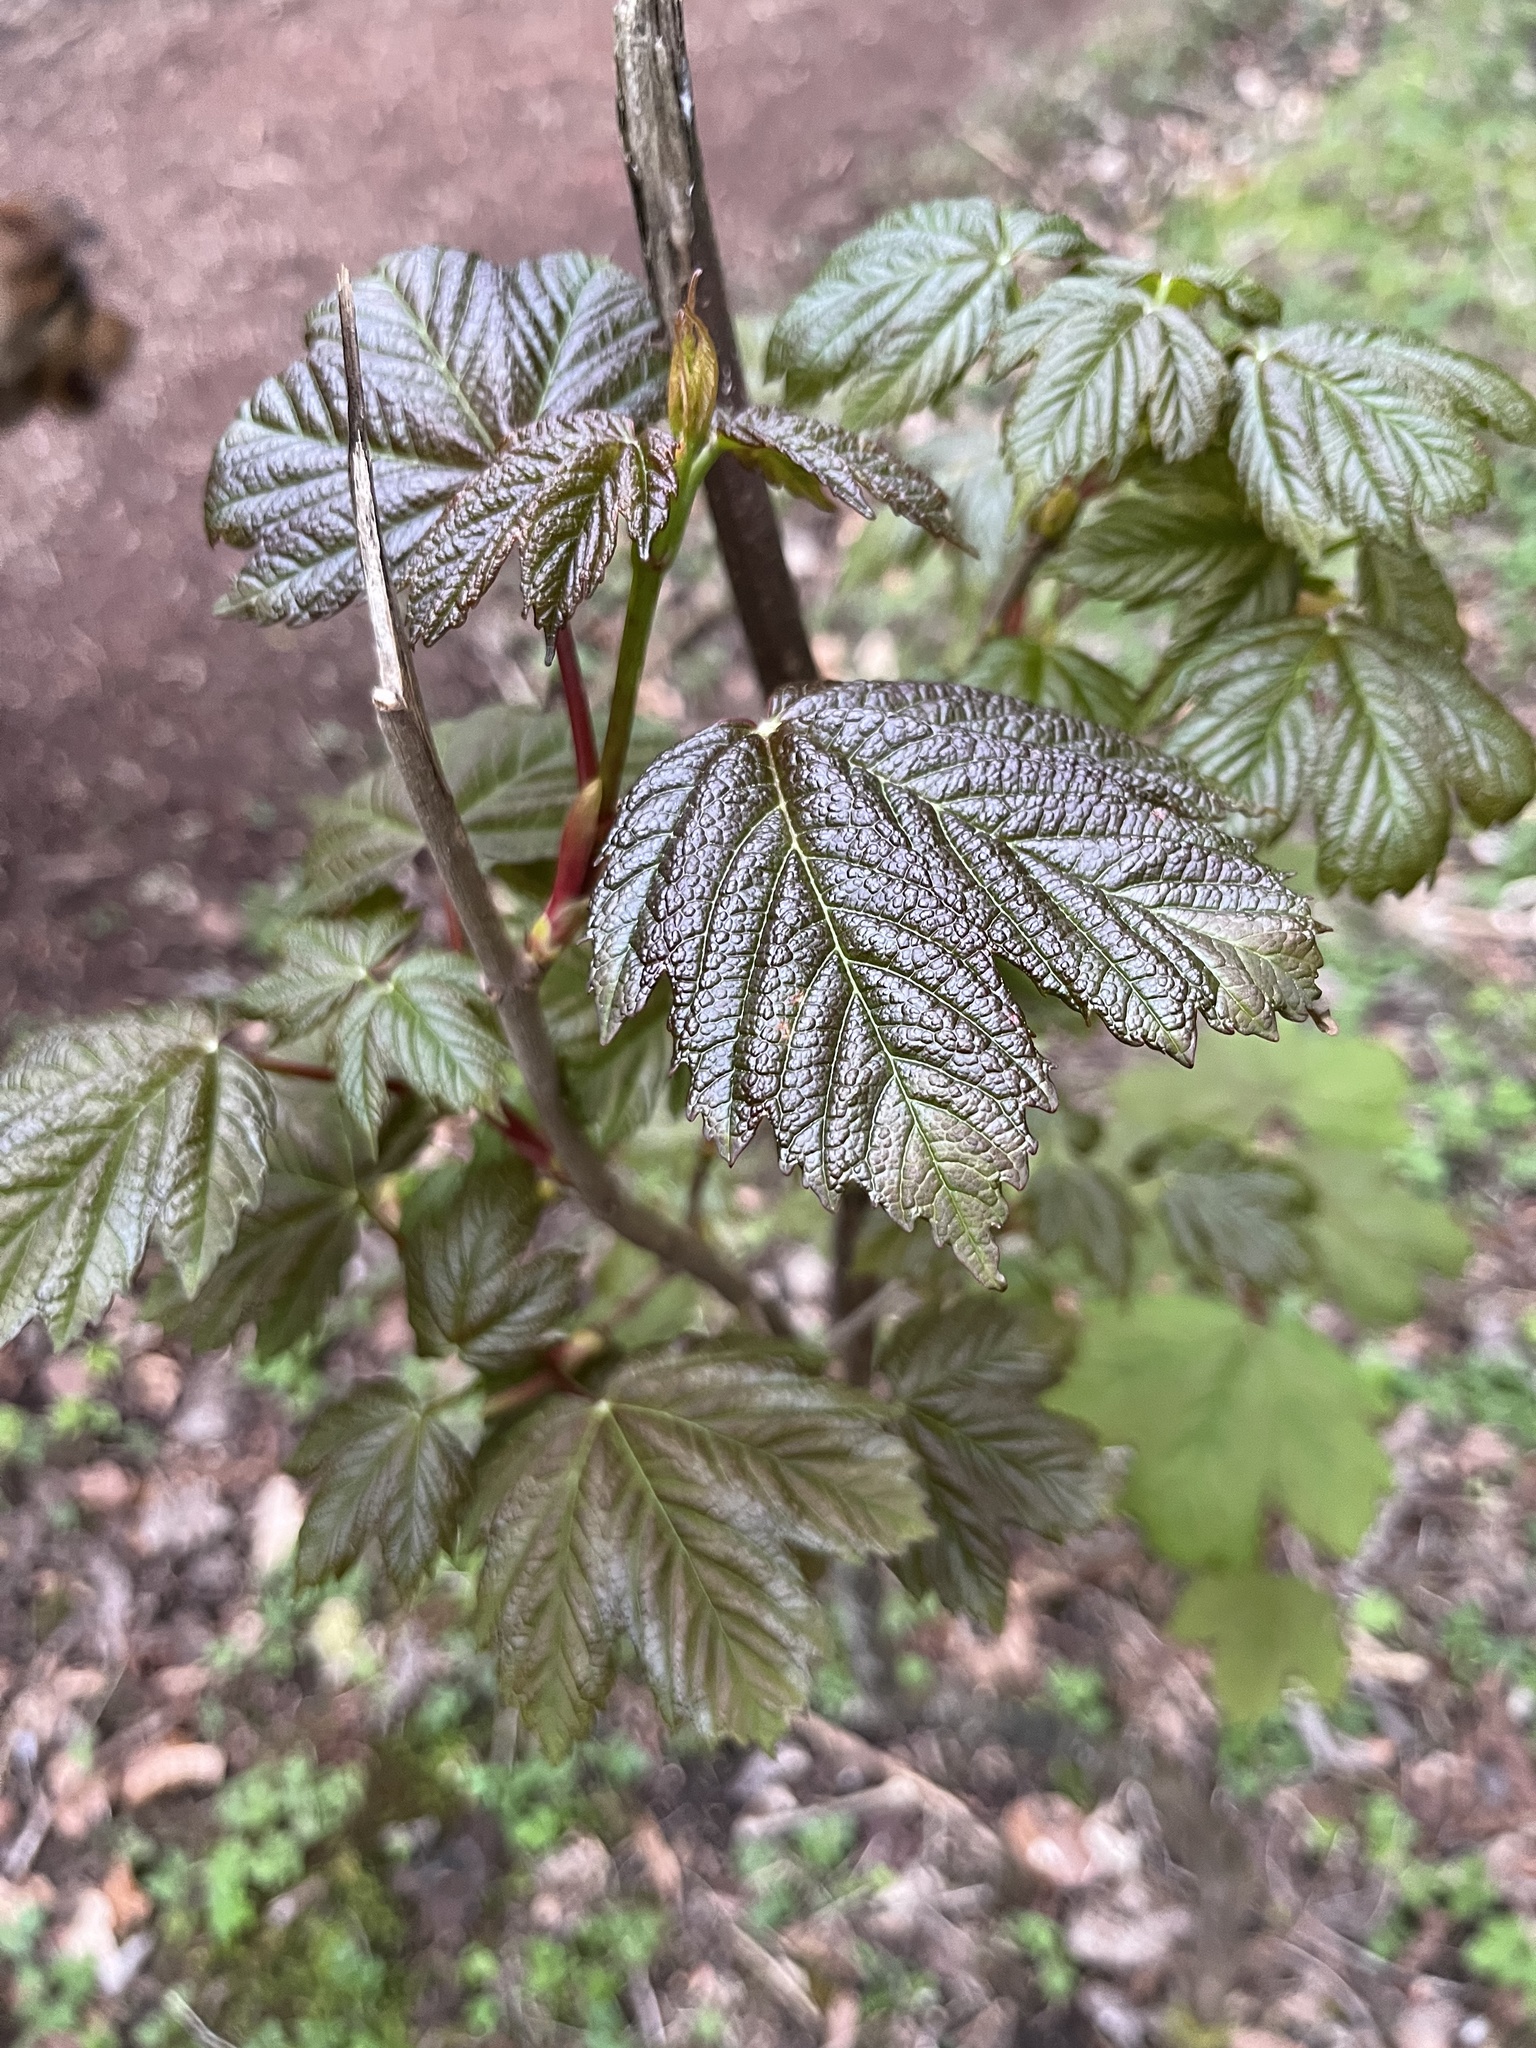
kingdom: Plantae
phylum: Tracheophyta
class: Magnoliopsida
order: Sapindales
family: Sapindaceae
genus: Acer
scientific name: Acer pseudoplatanus
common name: Sycamore
